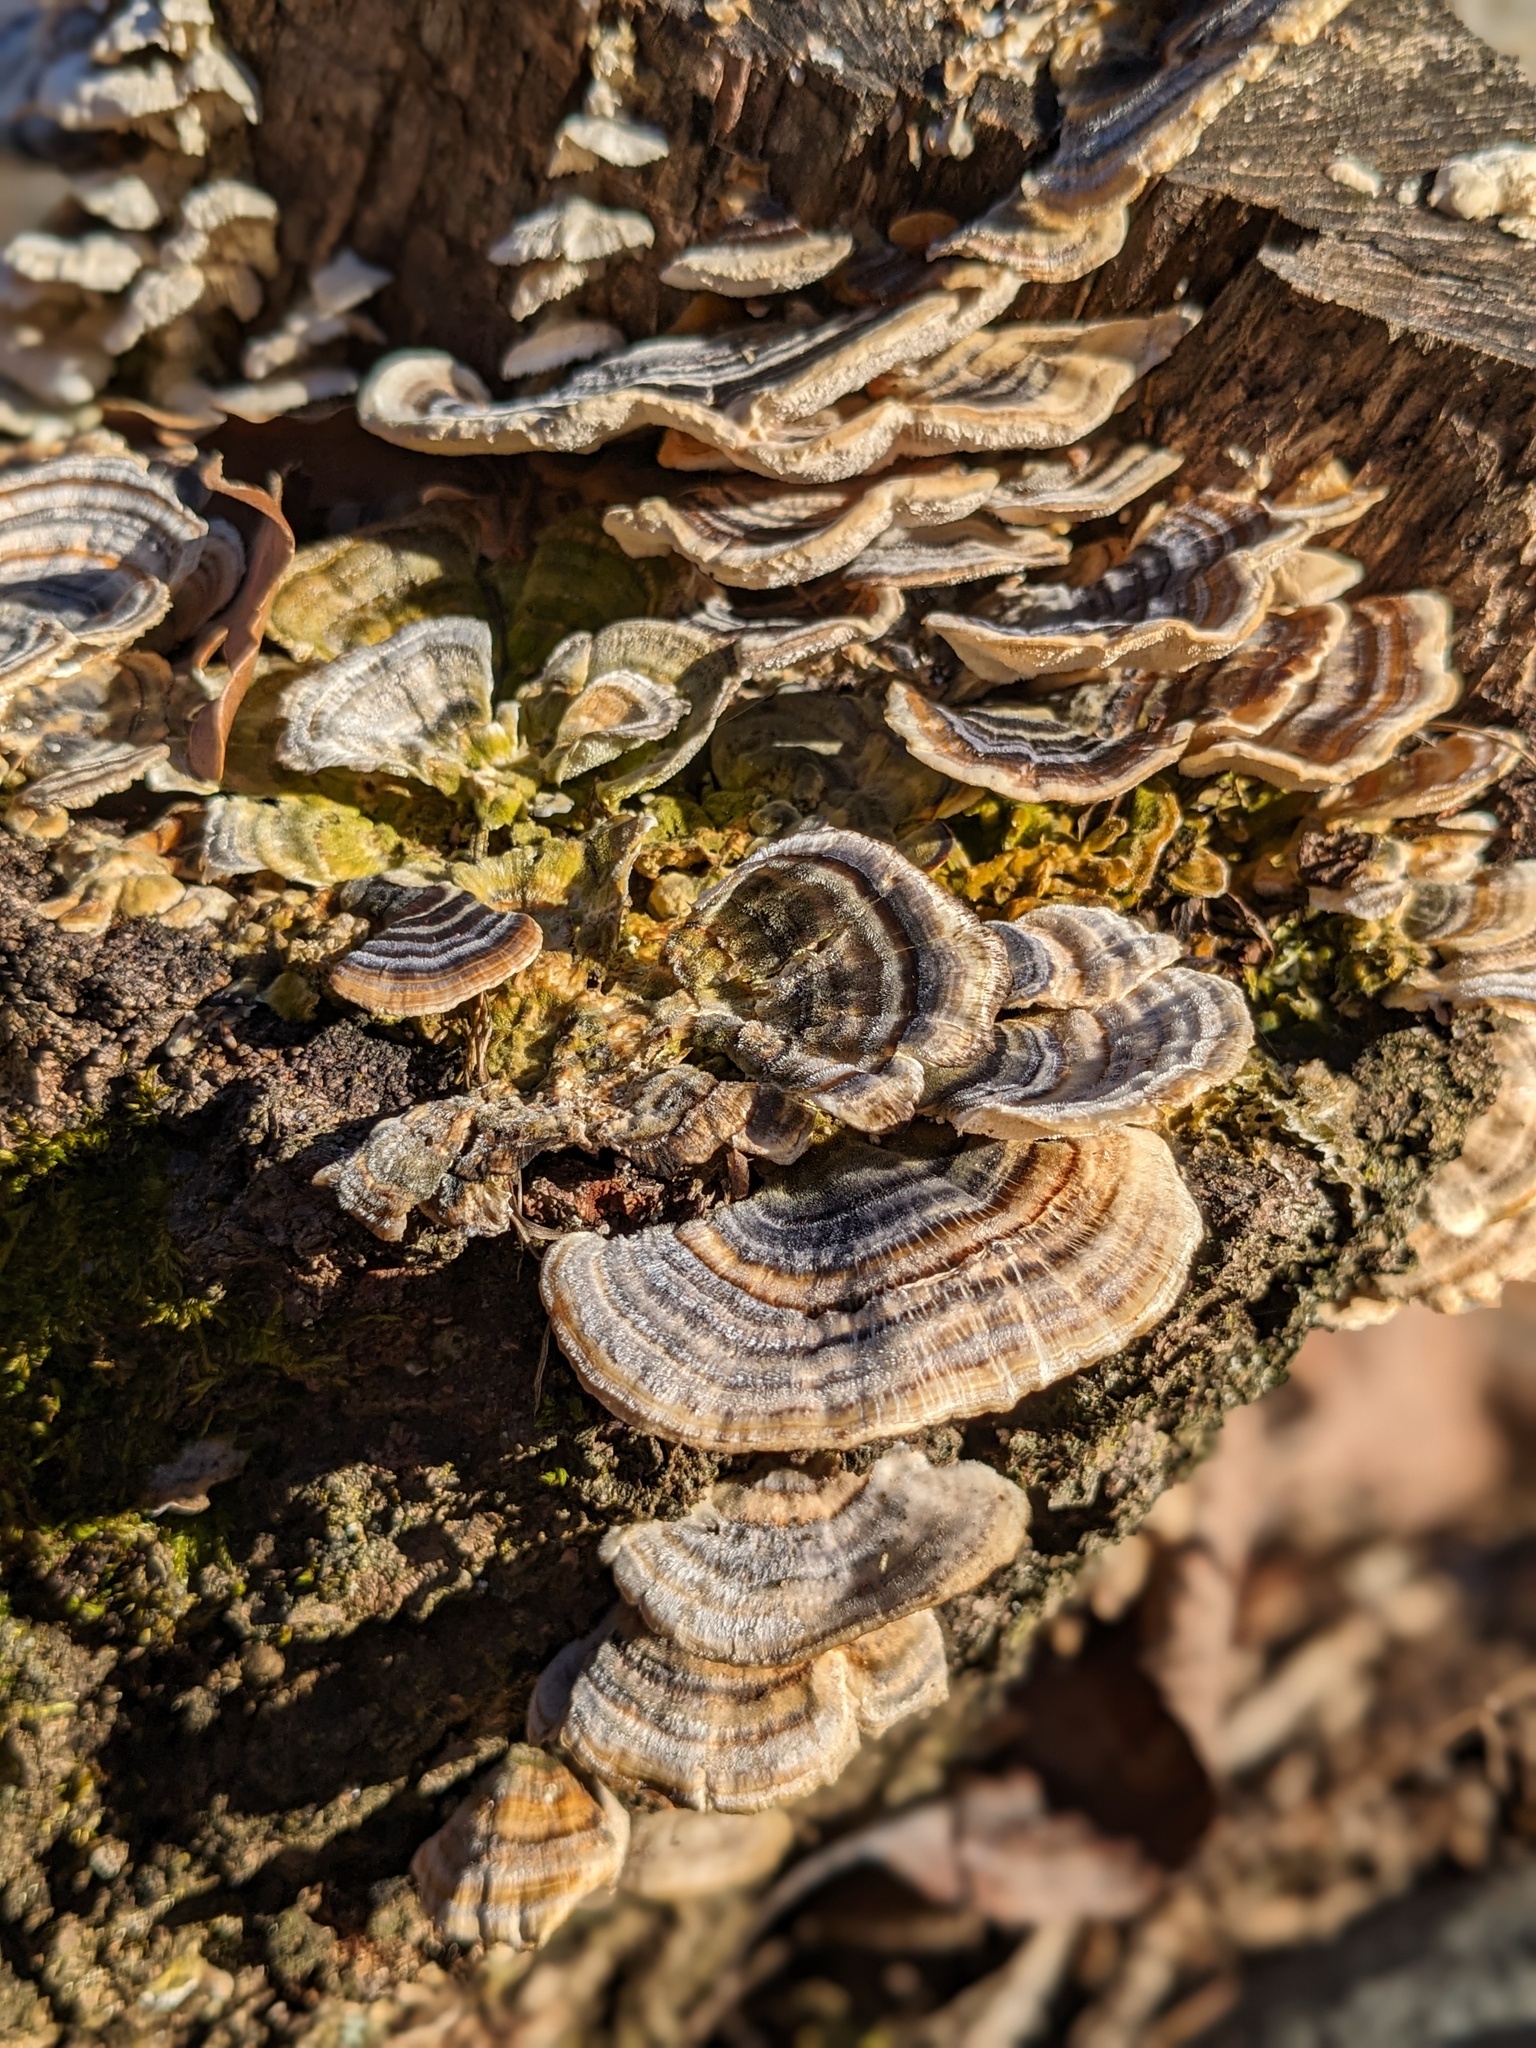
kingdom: Fungi
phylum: Basidiomycota
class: Agaricomycetes
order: Polyporales
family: Polyporaceae
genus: Trametes
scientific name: Trametes versicolor
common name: Turkeytail
